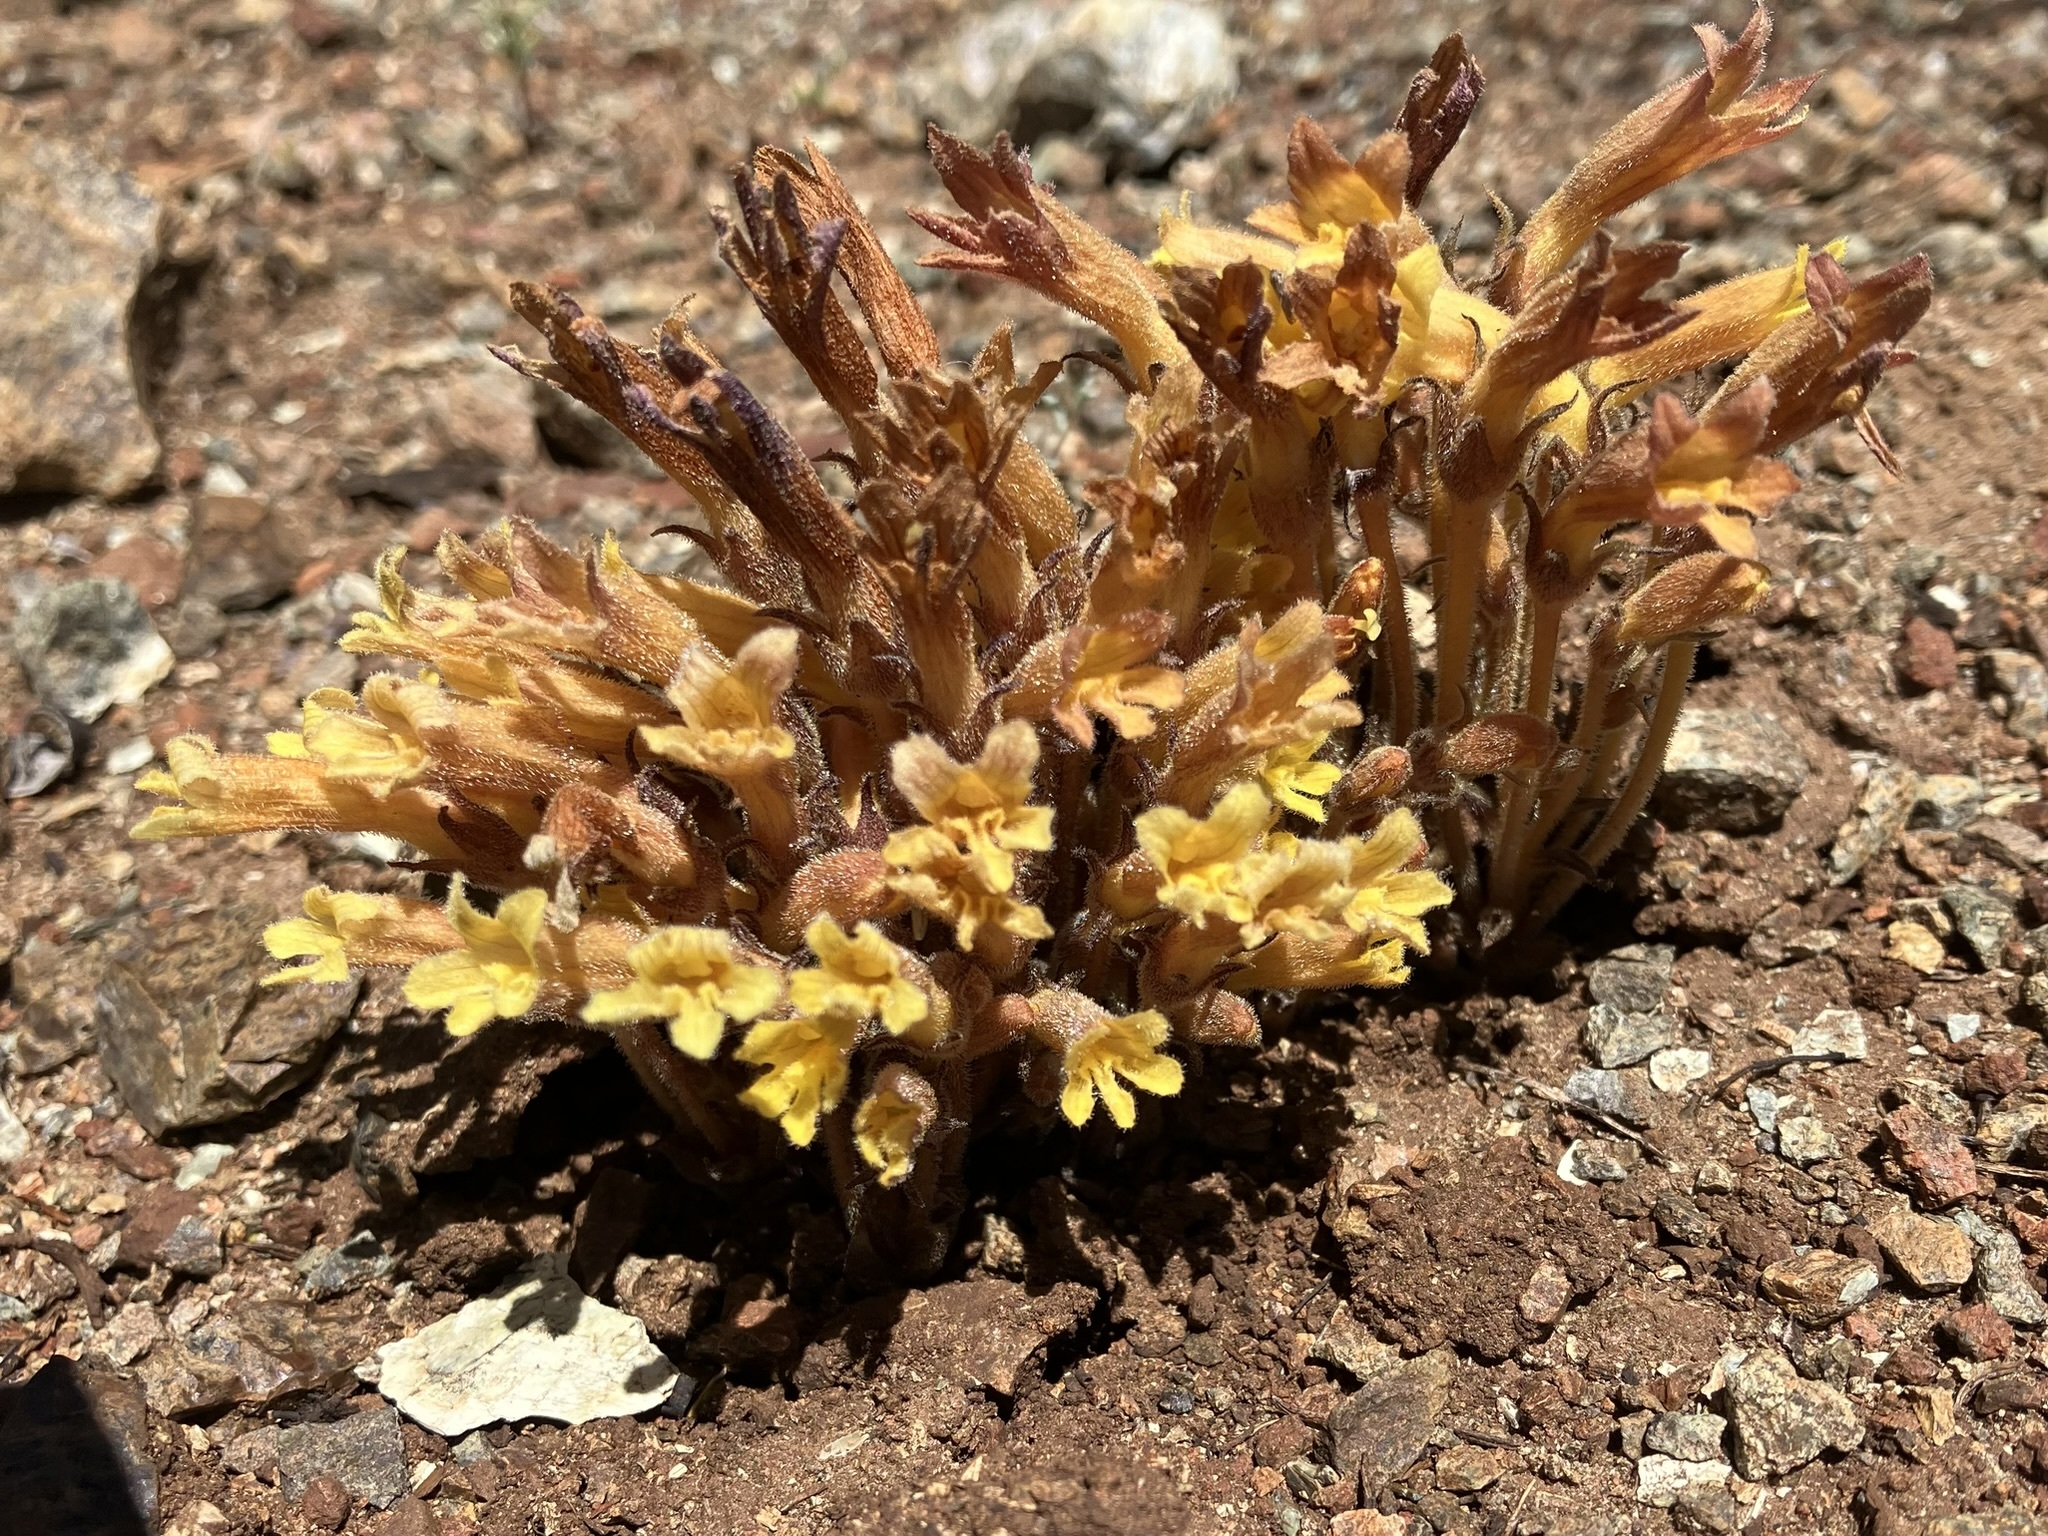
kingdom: Plantae
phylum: Tracheophyta
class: Magnoliopsida
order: Lamiales
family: Orobanchaceae
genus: Aphyllon
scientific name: Aphyllon franciscanum
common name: San francisco broomrape
